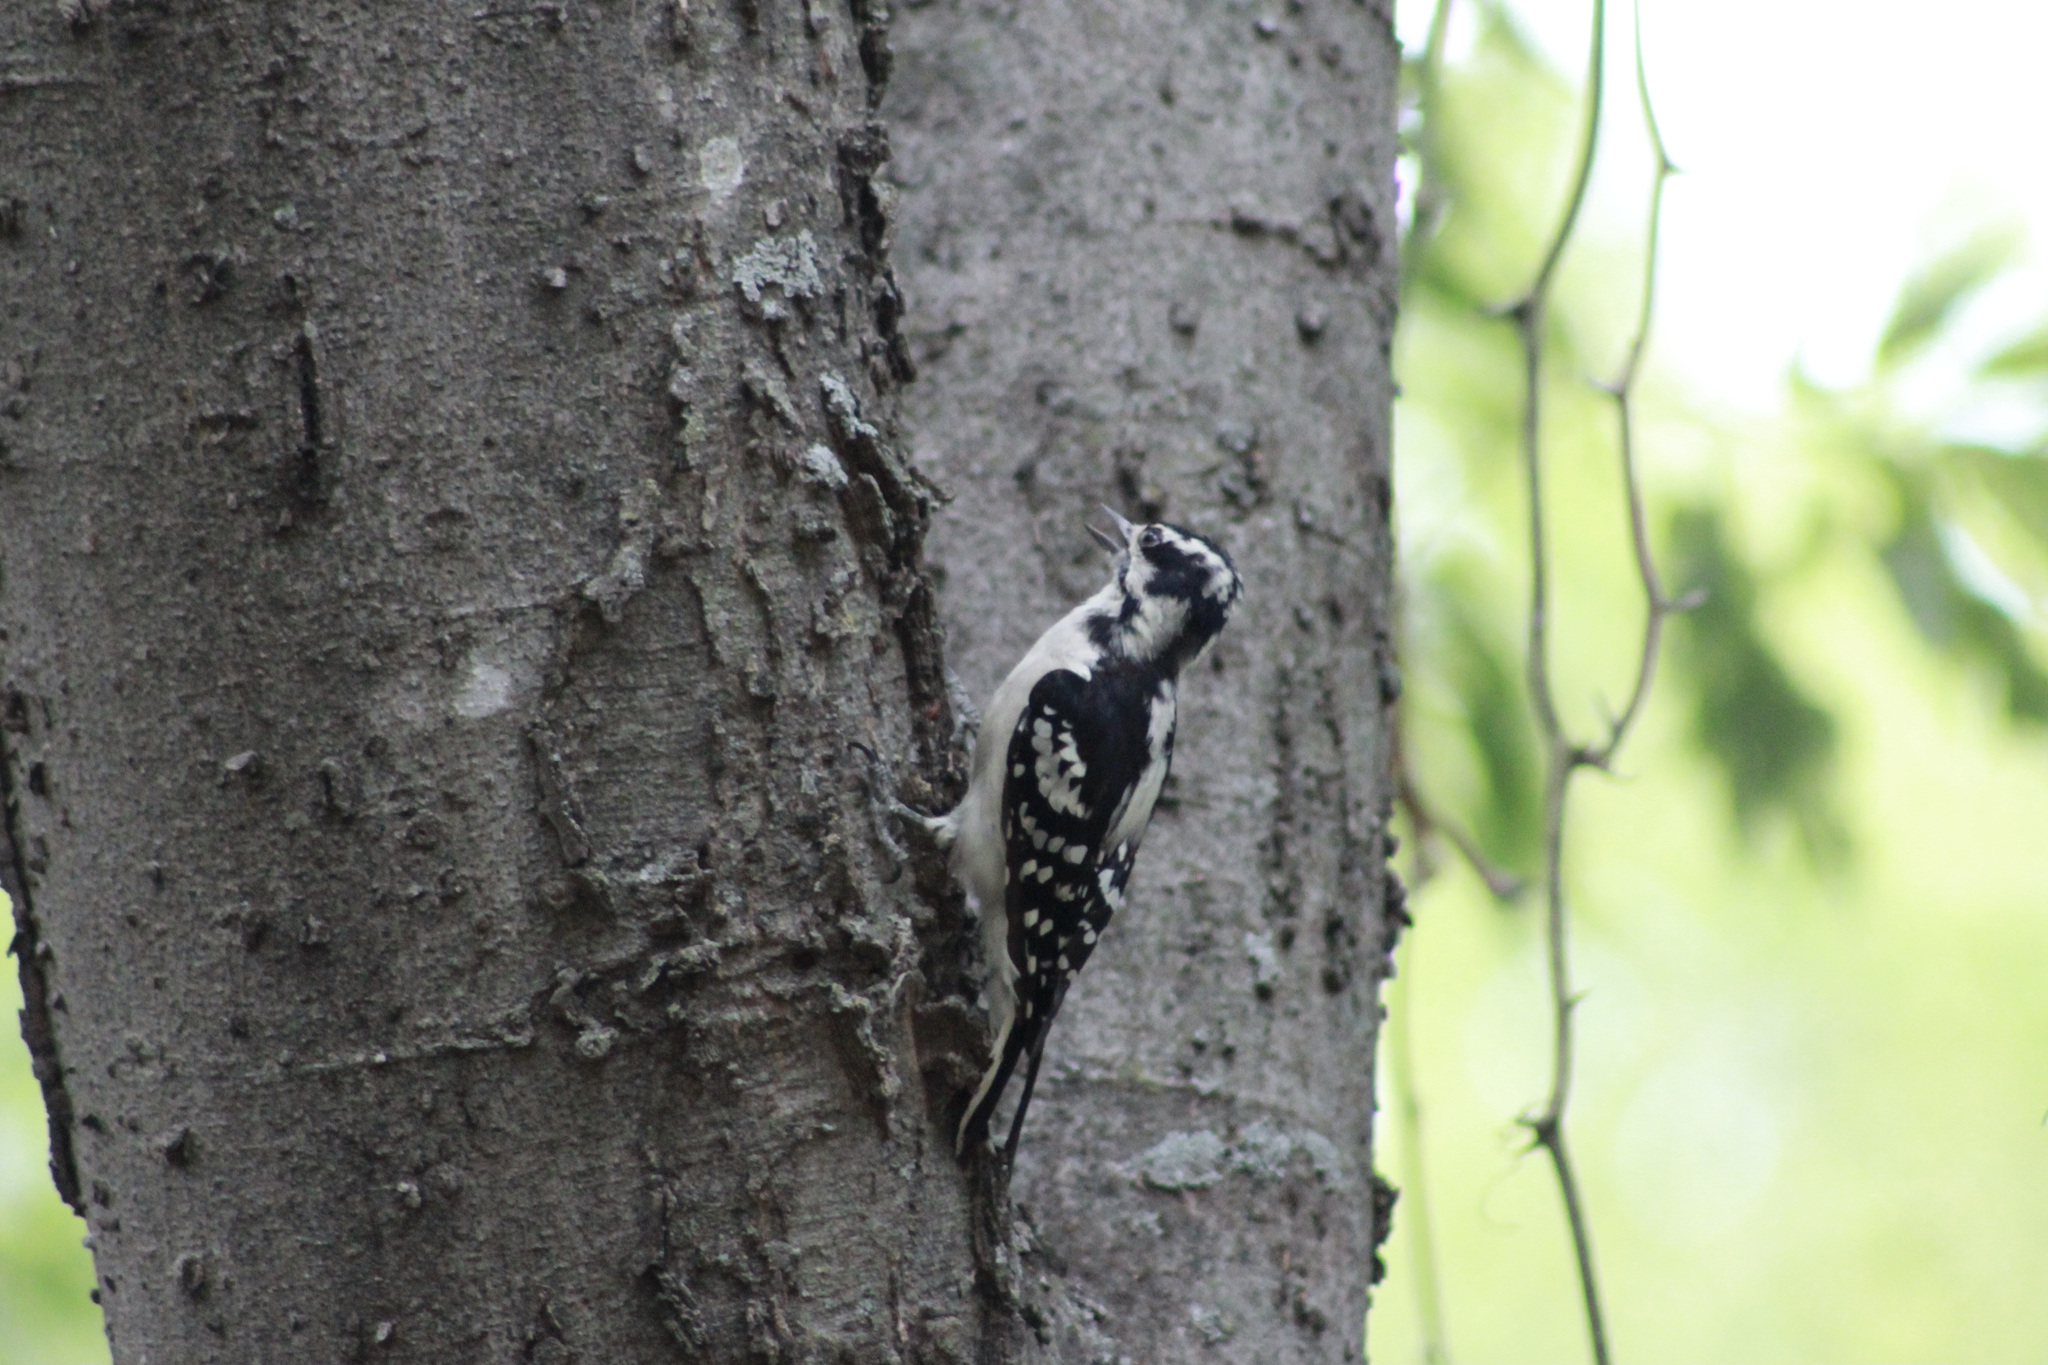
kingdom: Animalia
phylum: Chordata
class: Aves
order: Piciformes
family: Picidae
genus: Dryobates
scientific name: Dryobates pubescens
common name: Downy woodpecker
